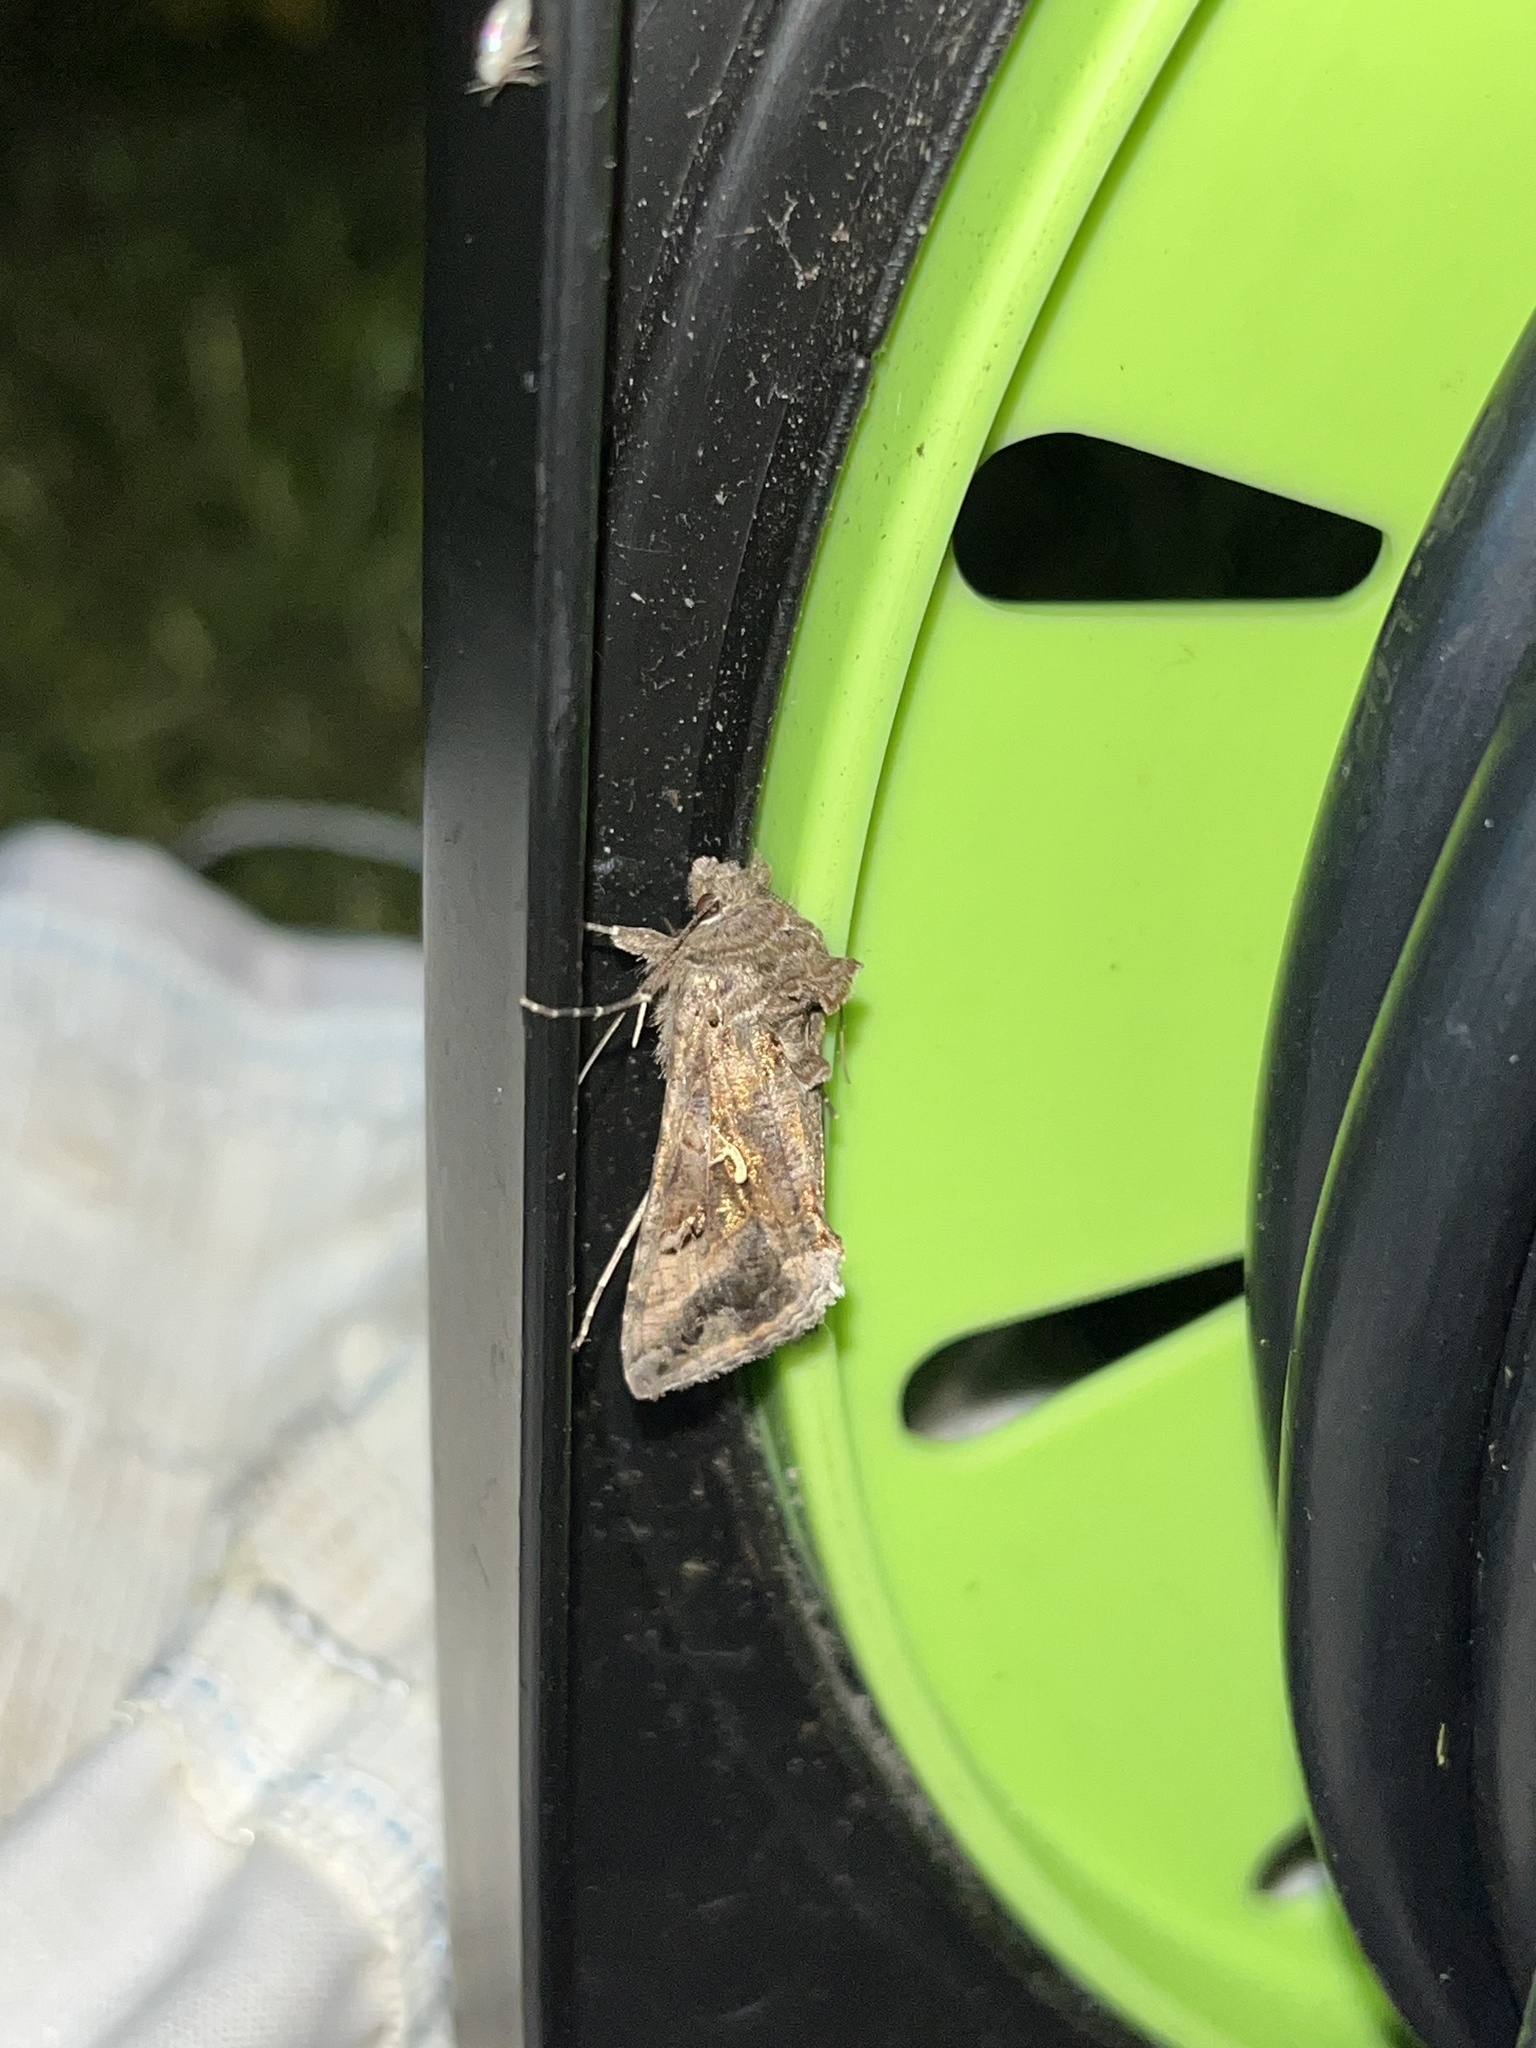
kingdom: Animalia
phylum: Arthropoda
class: Insecta
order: Lepidoptera
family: Noctuidae
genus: Autographa
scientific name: Autographa gamma
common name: Silver y
